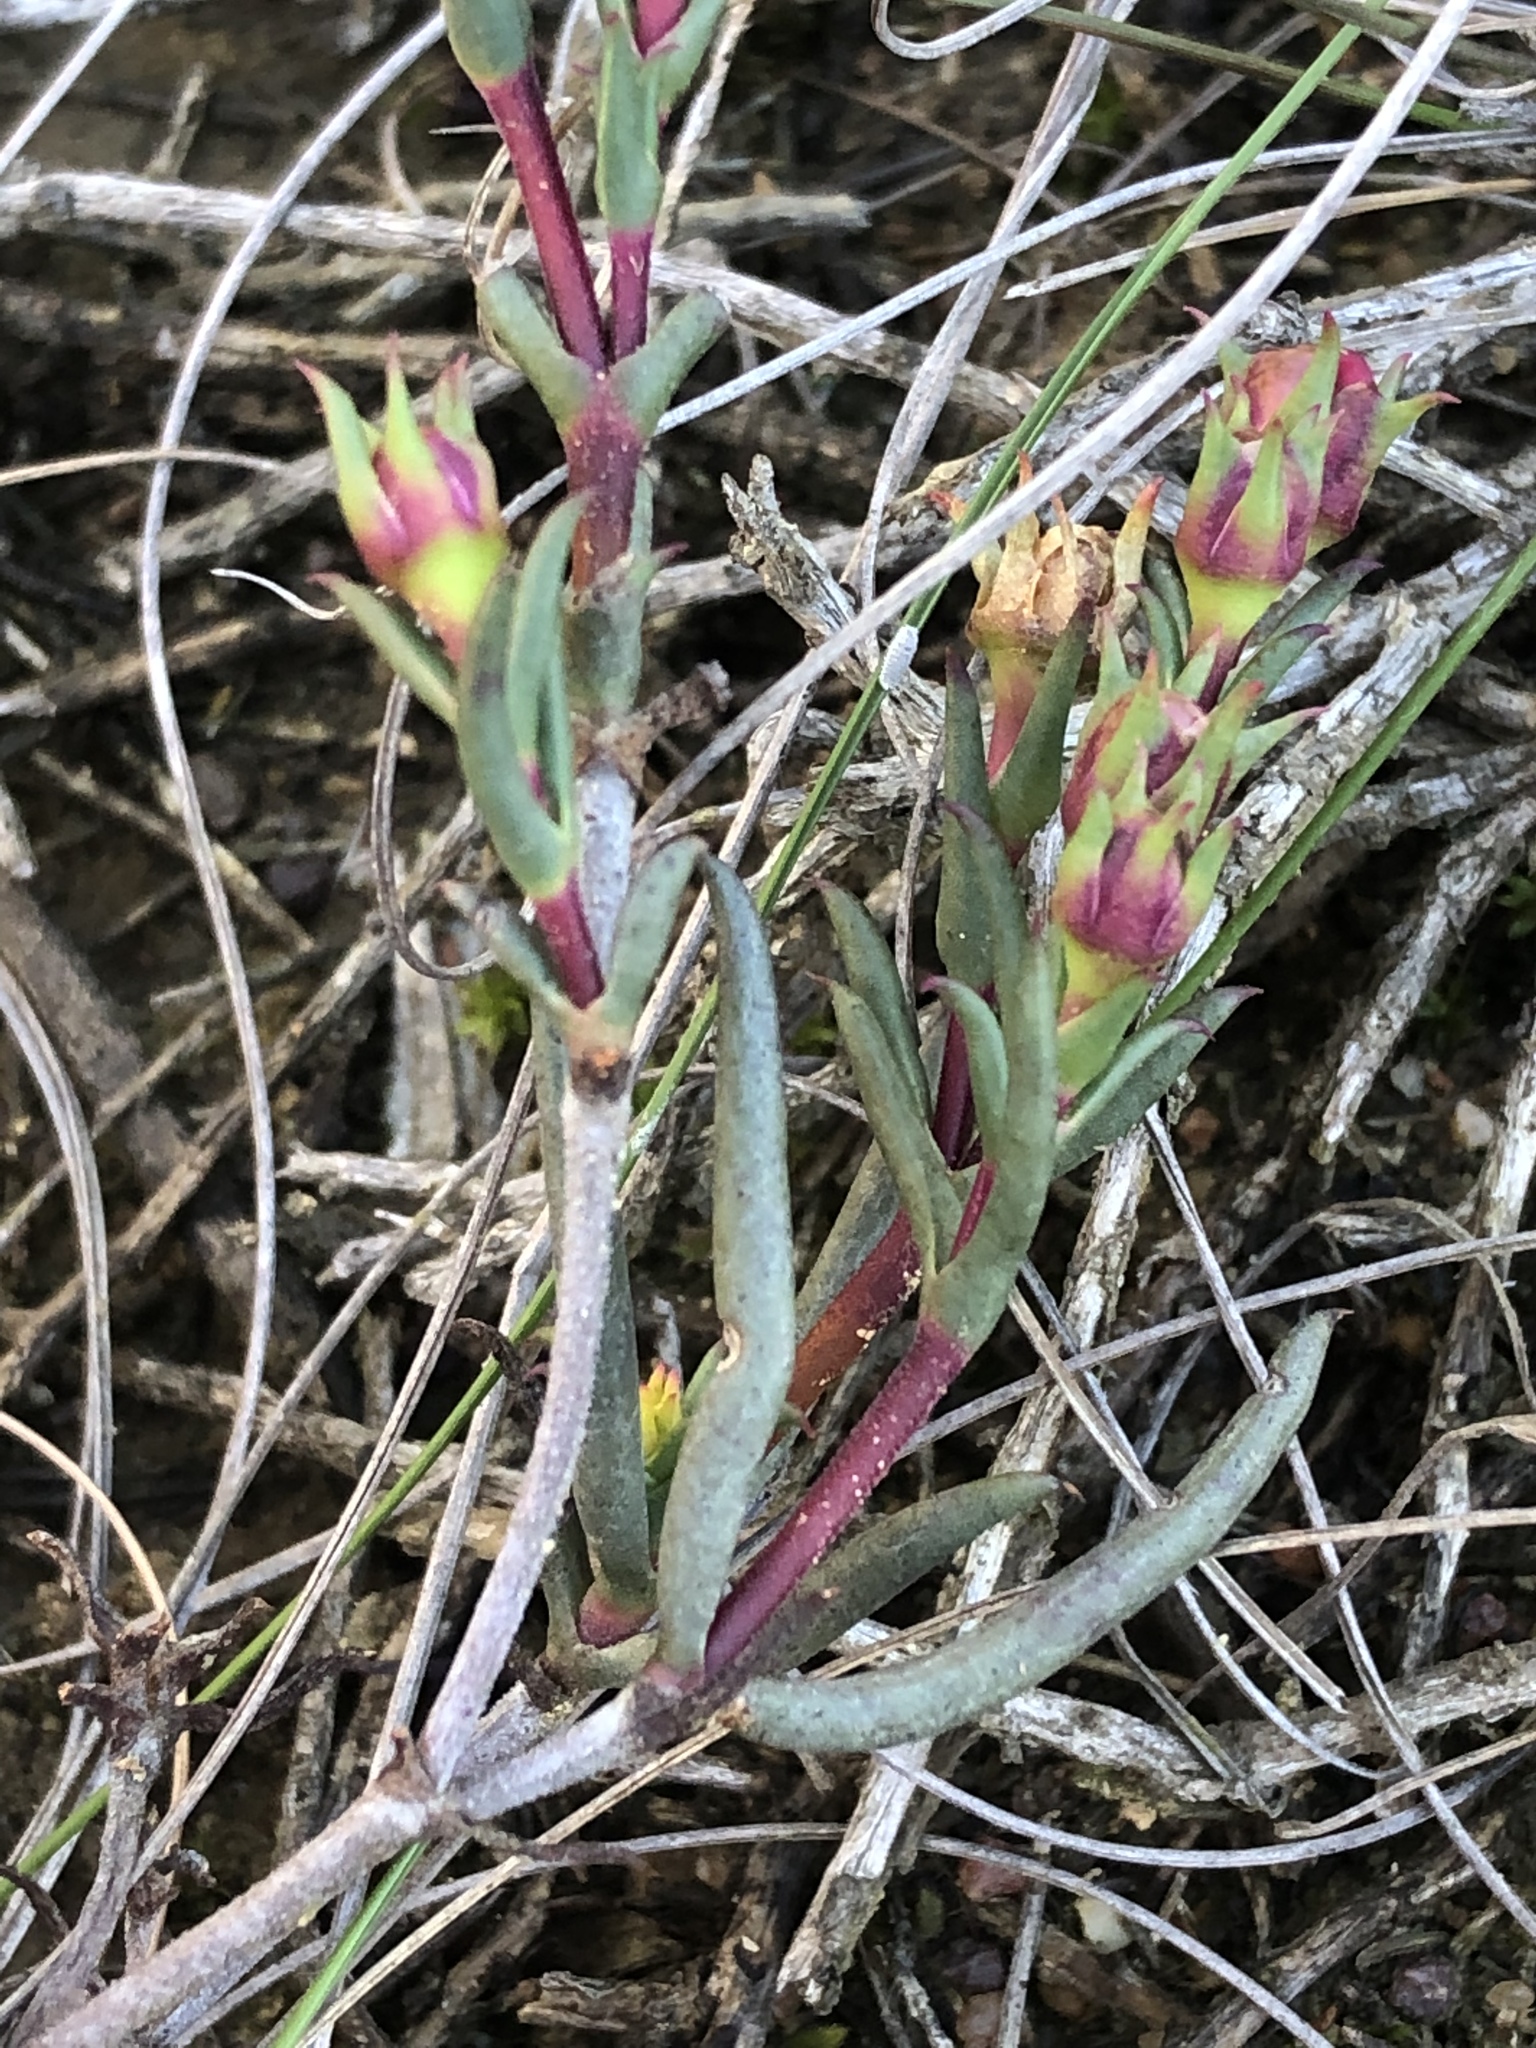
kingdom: Plantae
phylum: Tracheophyta
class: Magnoliopsida
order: Caryophyllales
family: Aizoaceae
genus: Lampranthus
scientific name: Lampranthus spiniformis
